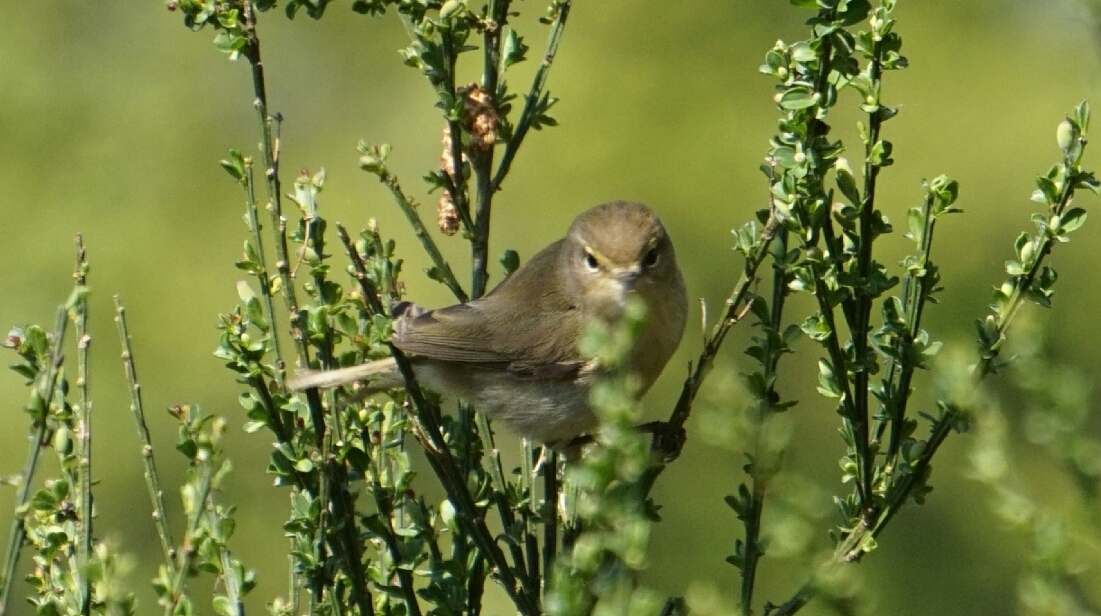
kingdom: Animalia
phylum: Chordata
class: Aves
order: Passeriformes
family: Phylloscopidae
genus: Phylloscopus
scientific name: Phylloscopus collybita
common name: Common chiffchaff
